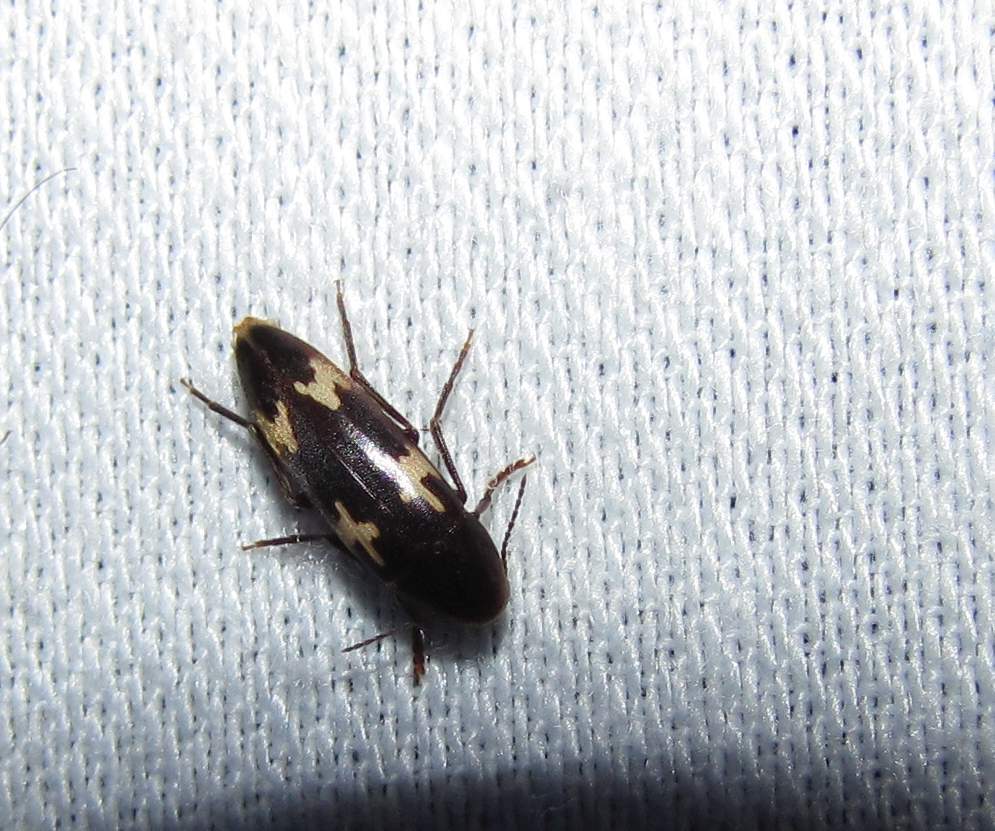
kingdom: Animalia
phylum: Arthropoda
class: Insecta
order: Coleoptera
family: Melandryidae
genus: Dircaea
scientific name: Dircaea liturata
